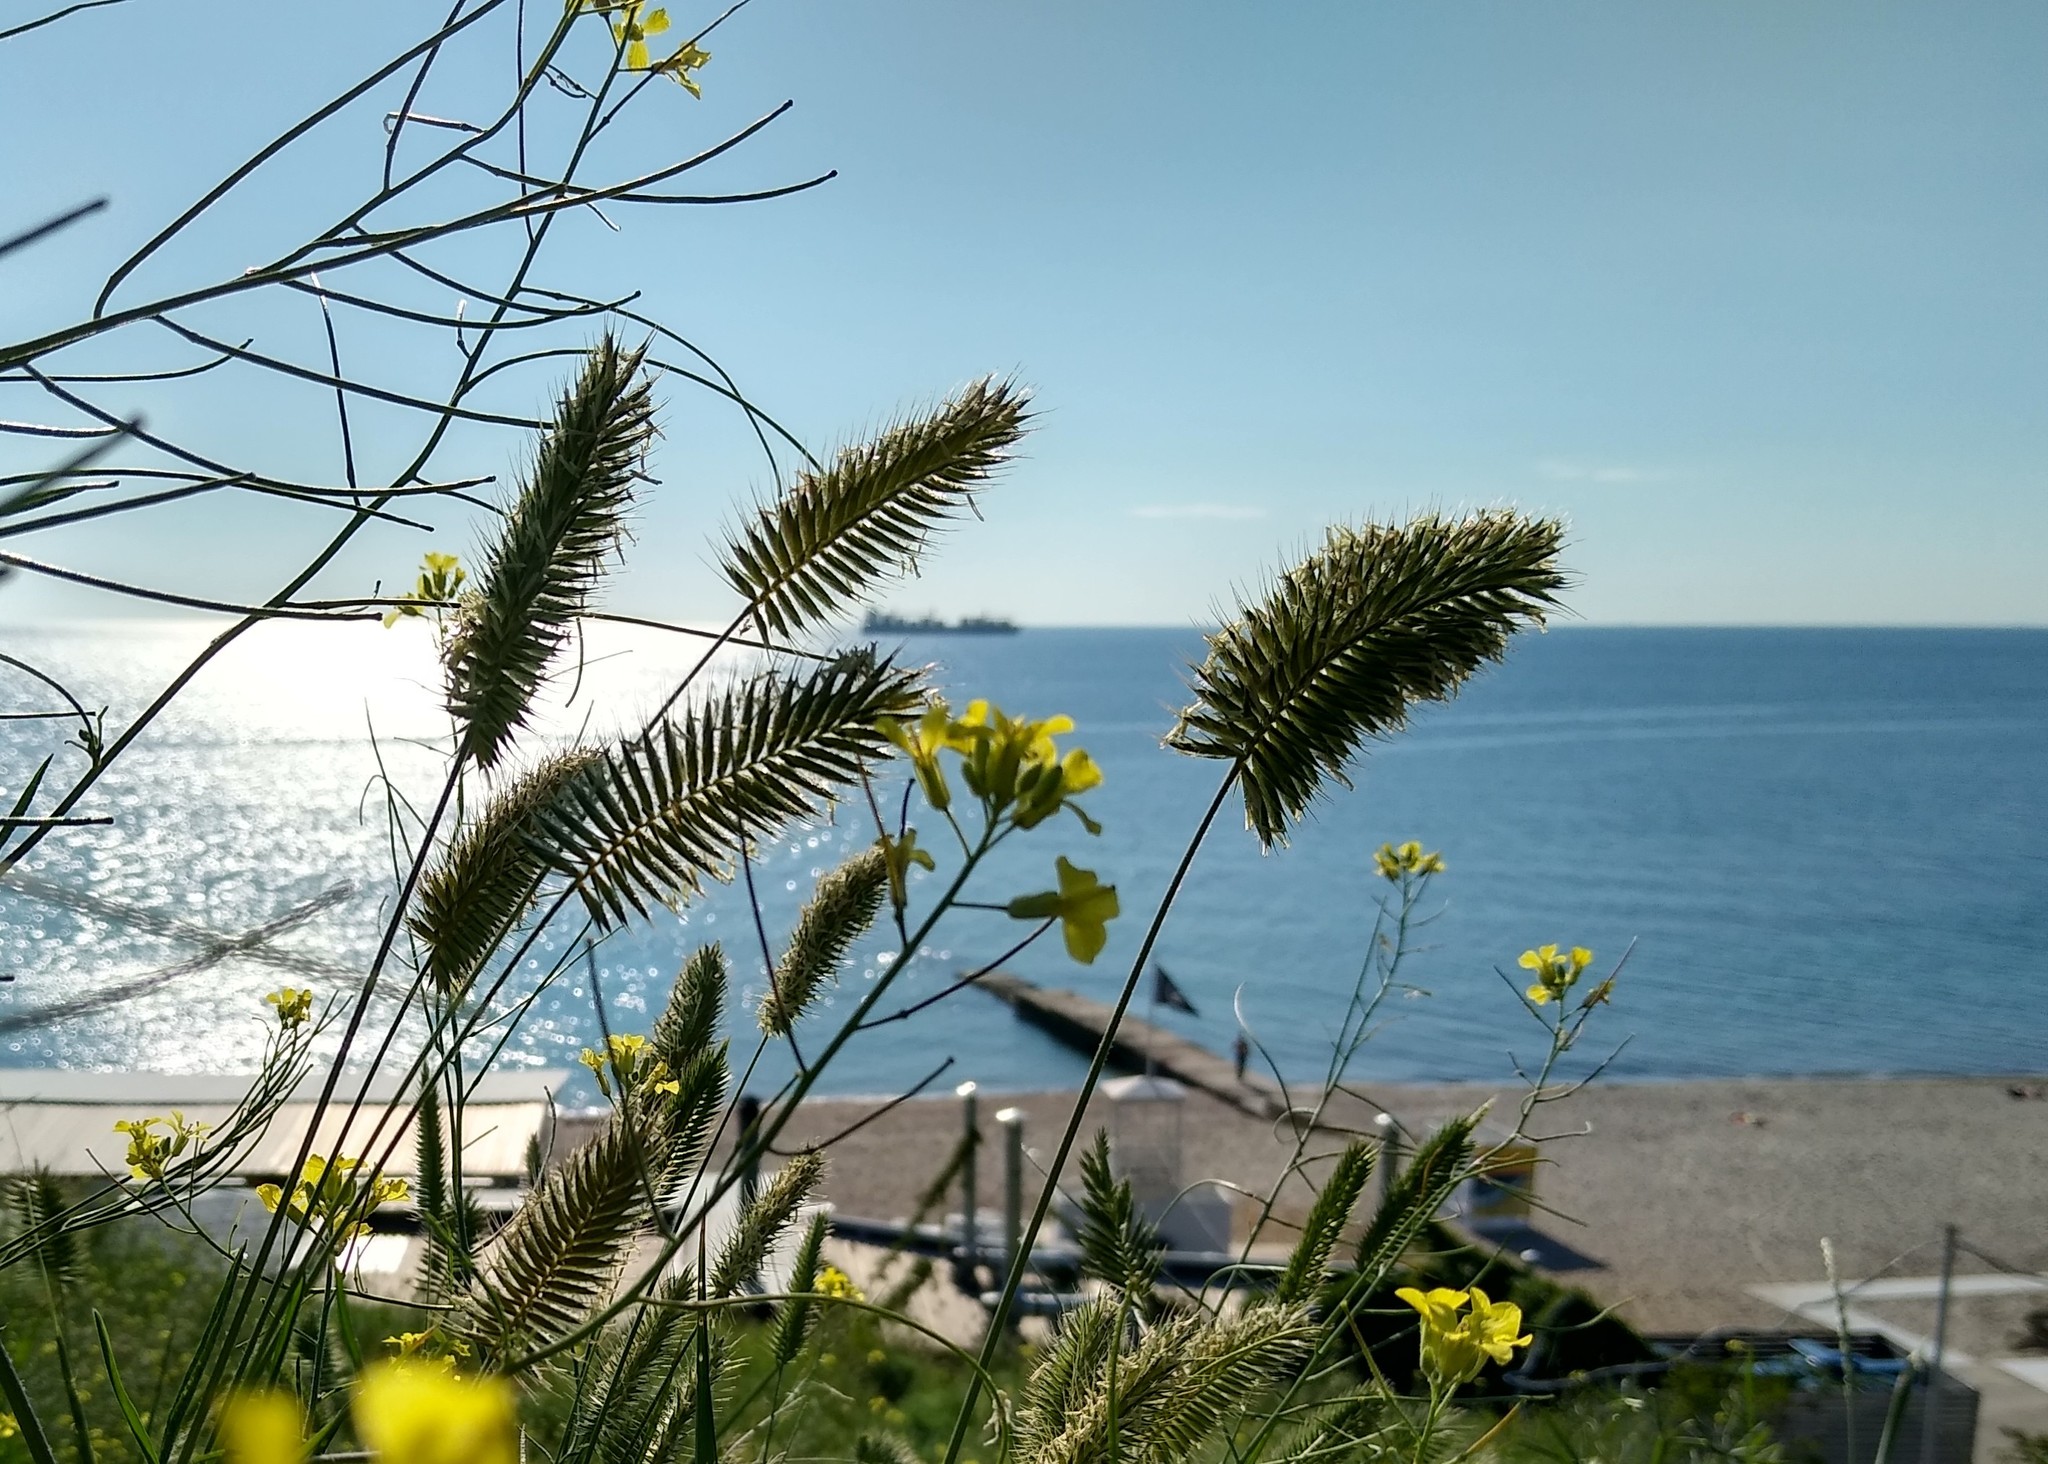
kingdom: Plantae
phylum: Tracheophyta
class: Liliopsida
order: Poales
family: Poaceae
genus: Agropyron
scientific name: Agropyron cristatum
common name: Crested wheatgrass
